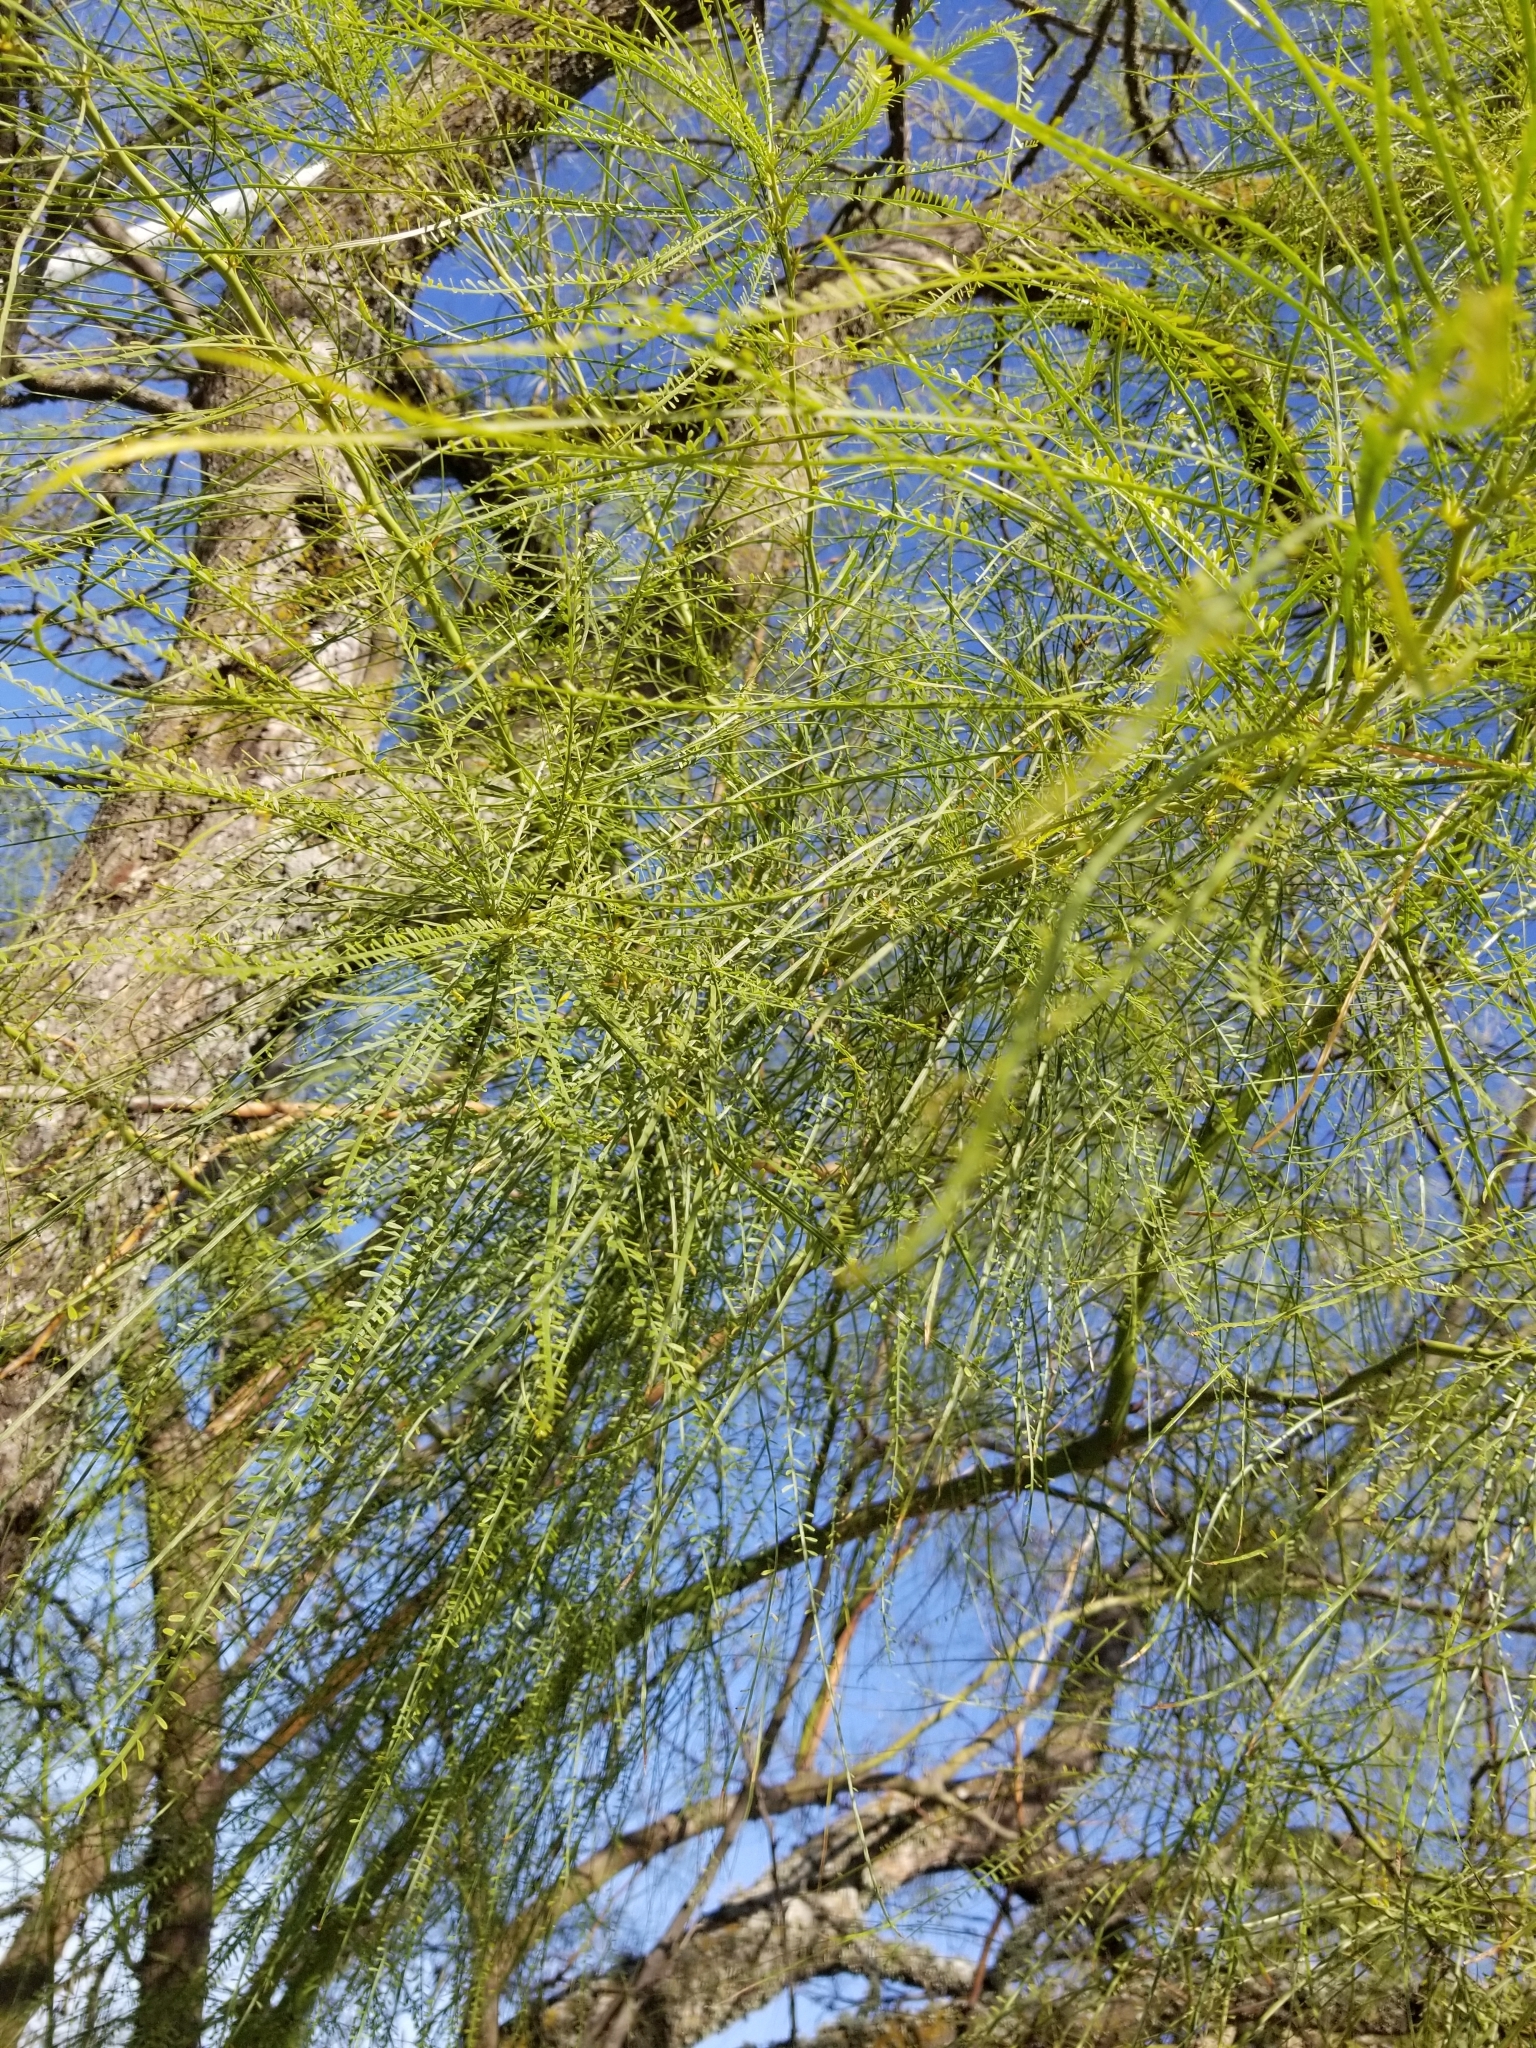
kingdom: Plantae
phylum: Tracheophyta
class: Magnoliopsida
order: Fabales
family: Fabaceae
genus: Parkinsonia
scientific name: Parkinsonia aculeata
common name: Jerusalem thorn
